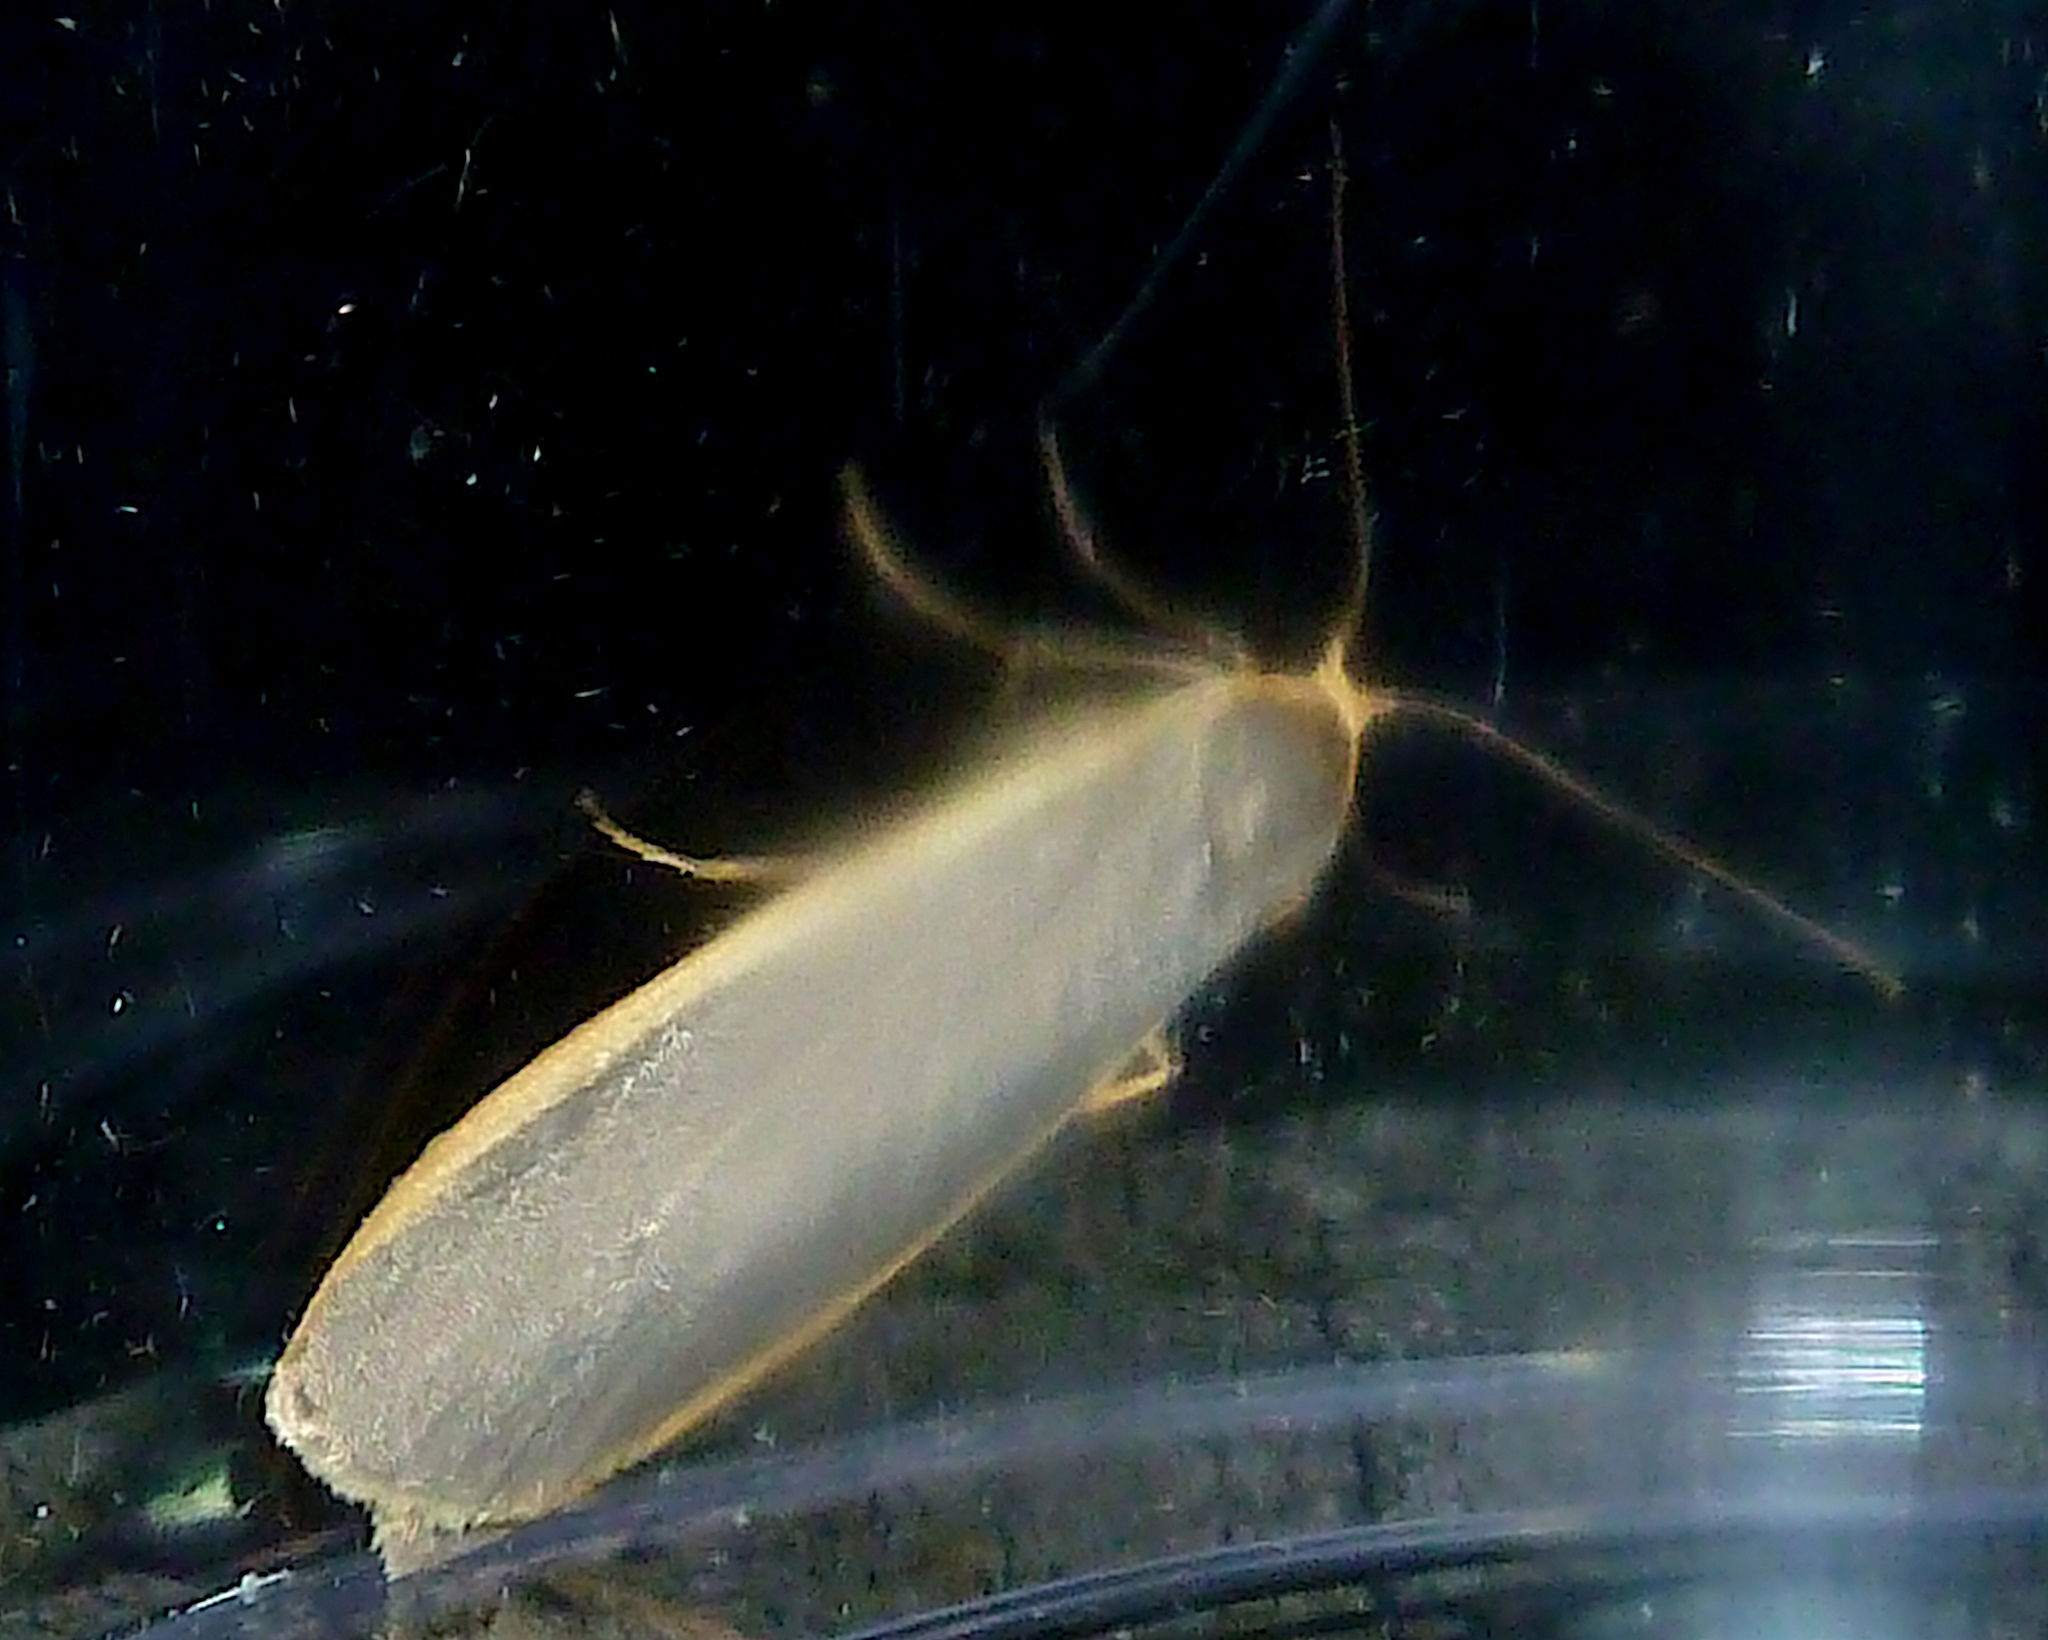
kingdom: Animalia
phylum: Arthropoda
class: Insecta
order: Lepidoptera
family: Erebidae
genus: Nyea
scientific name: Nyea lurideola
